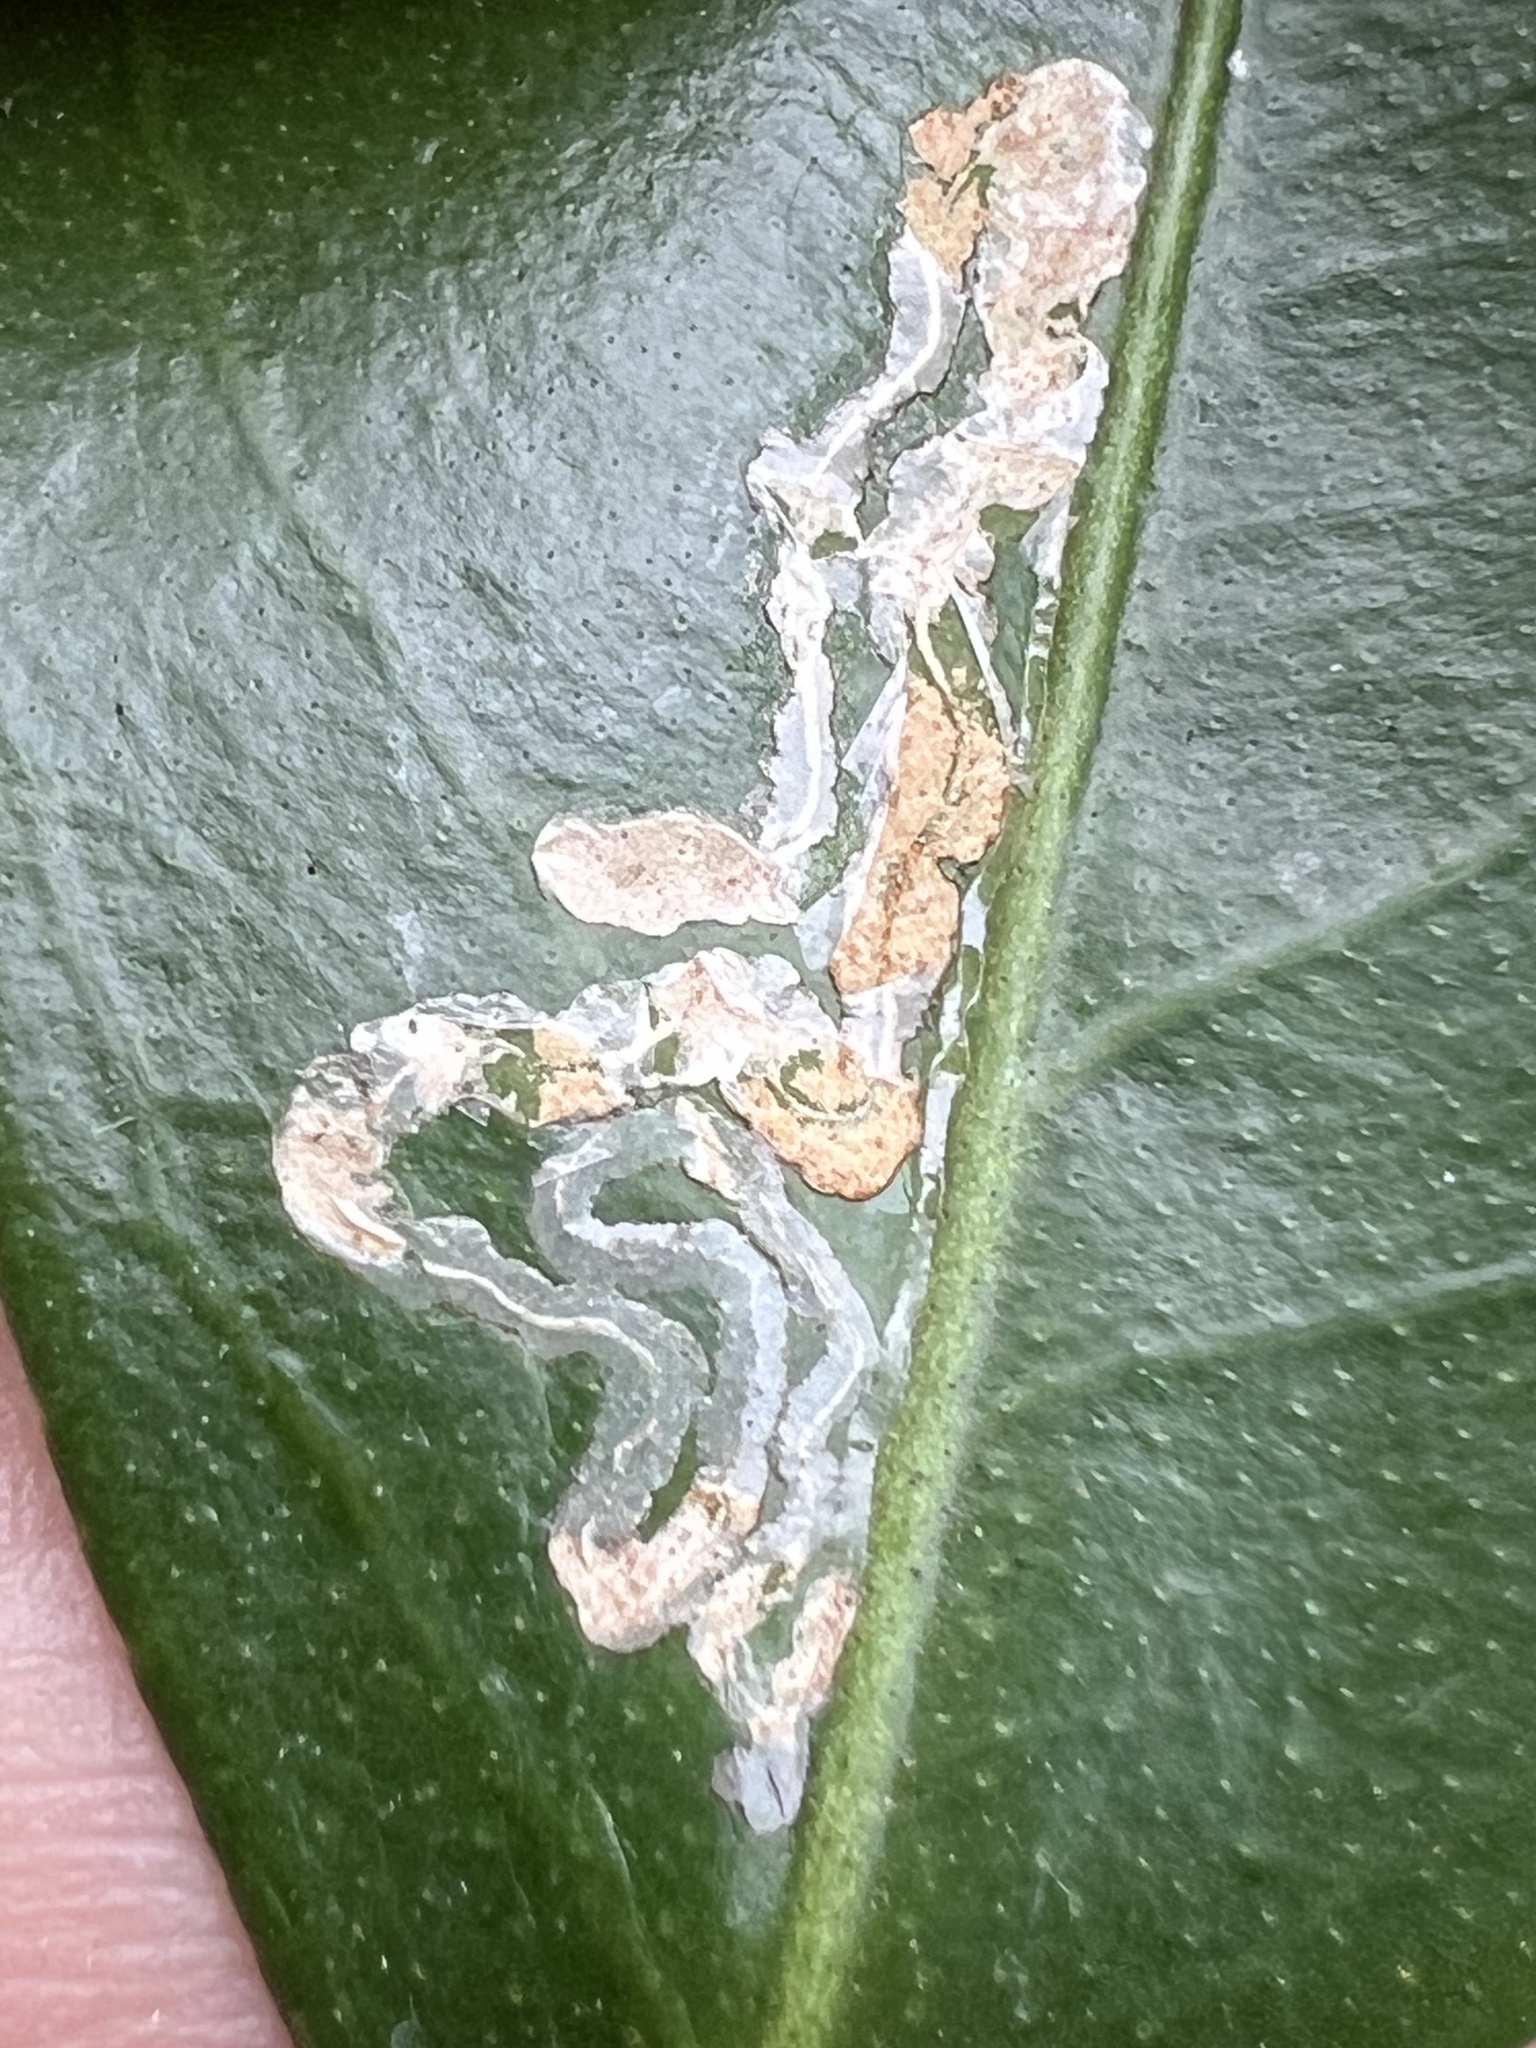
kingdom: Animalia
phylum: Arthropoda
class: Insecta
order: Lepidoptera
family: Gracillariidae
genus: Phyllocnistis
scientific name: Phyllocnistis citrella
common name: Citrus leafminer
